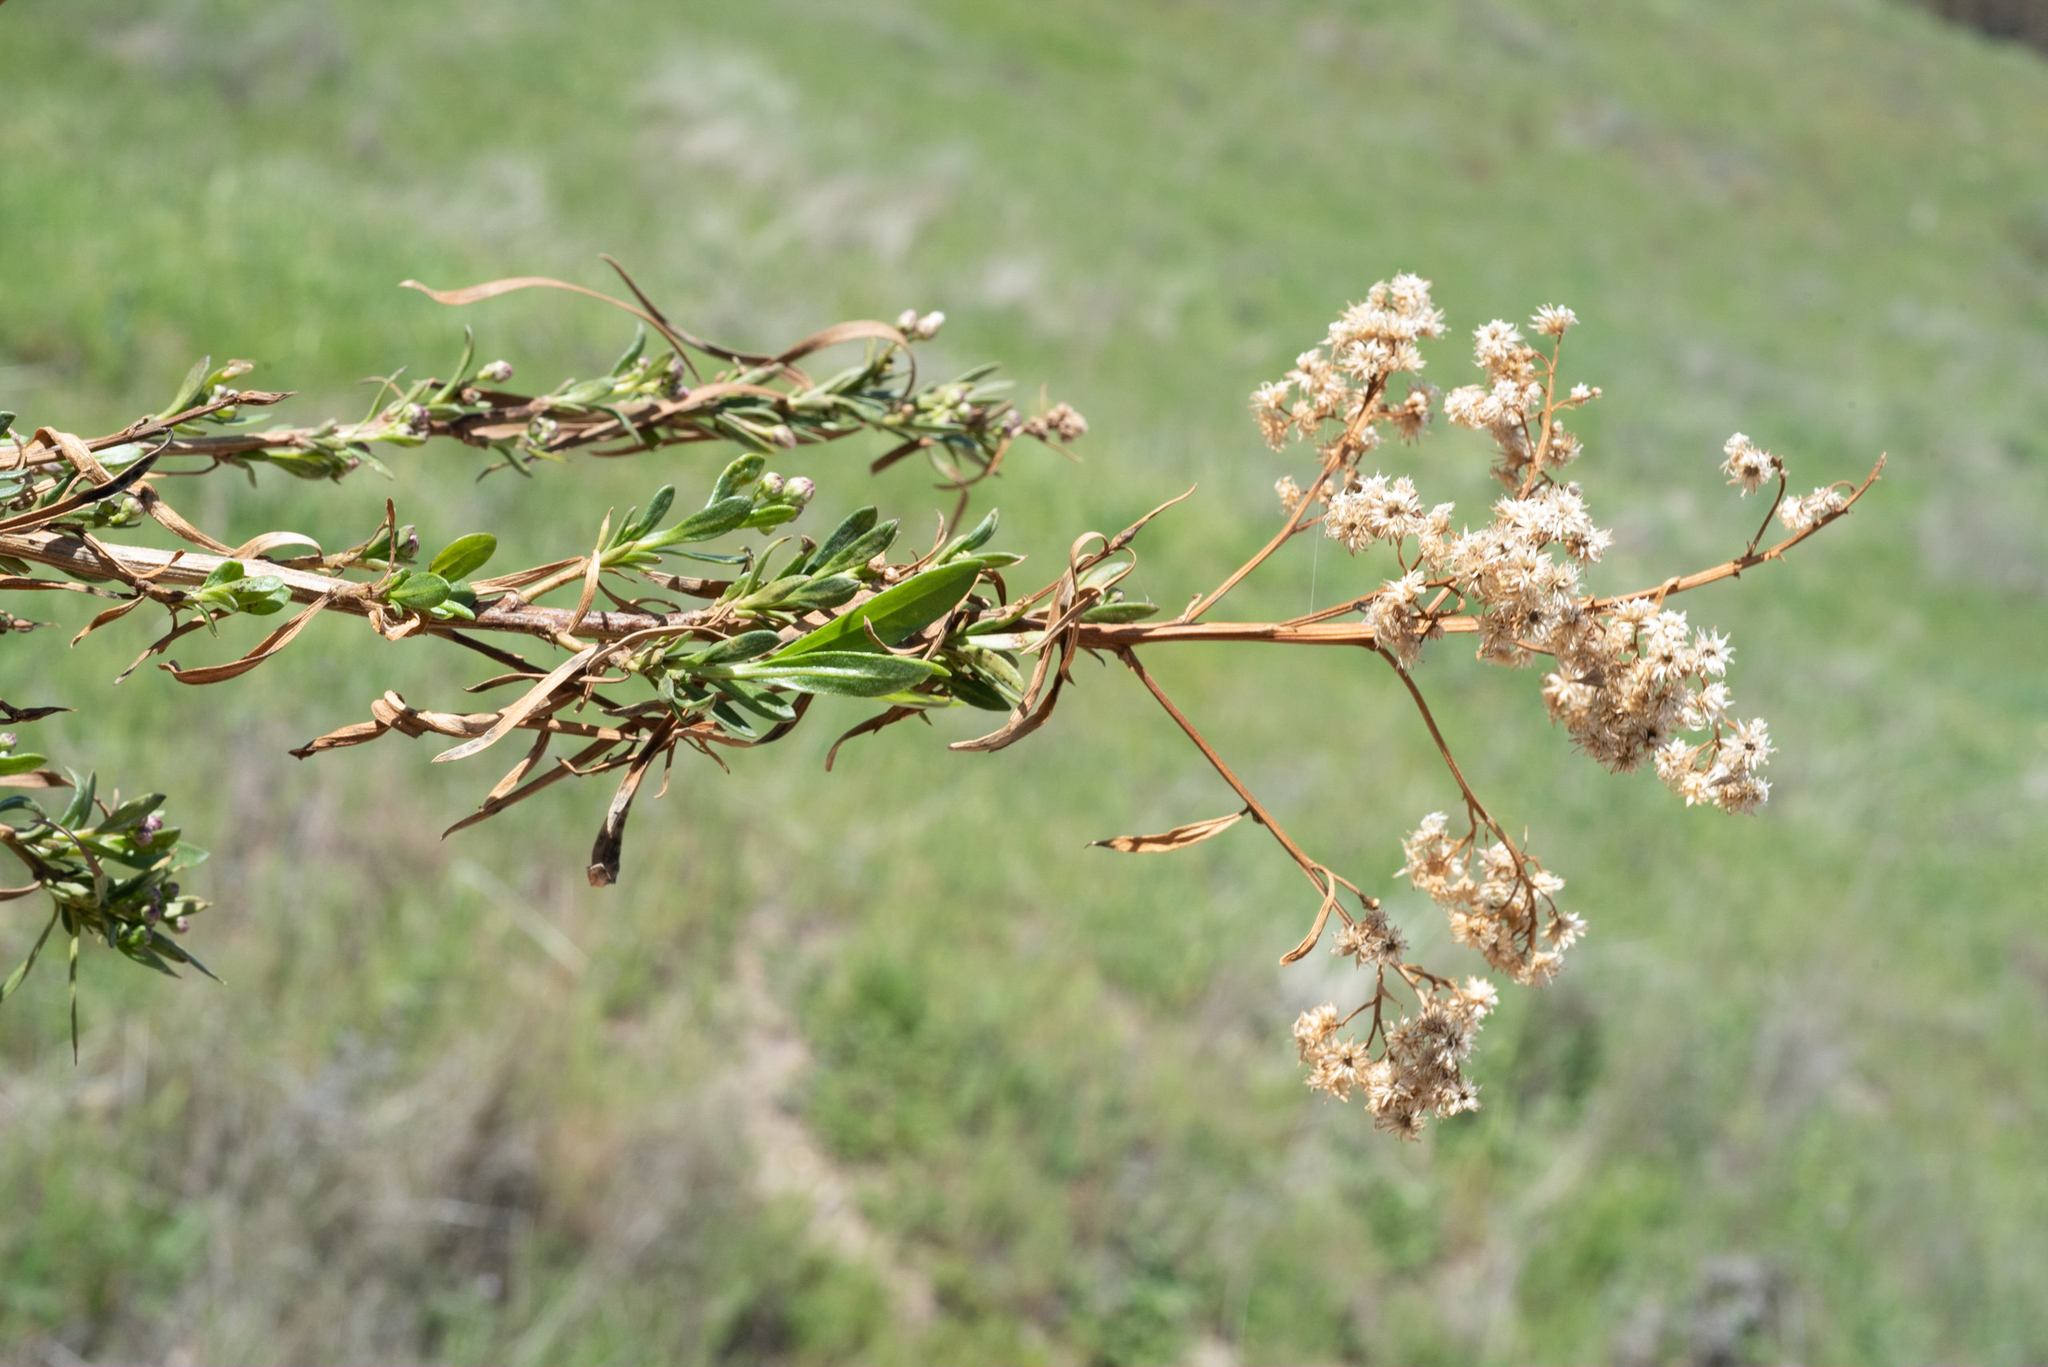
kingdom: Plantae
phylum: Tracheophyta
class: Magnoliopsida
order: Asterales
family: Asteraceae
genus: Baccharis
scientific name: Baccharis salicifolia
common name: Sticky baccharis
